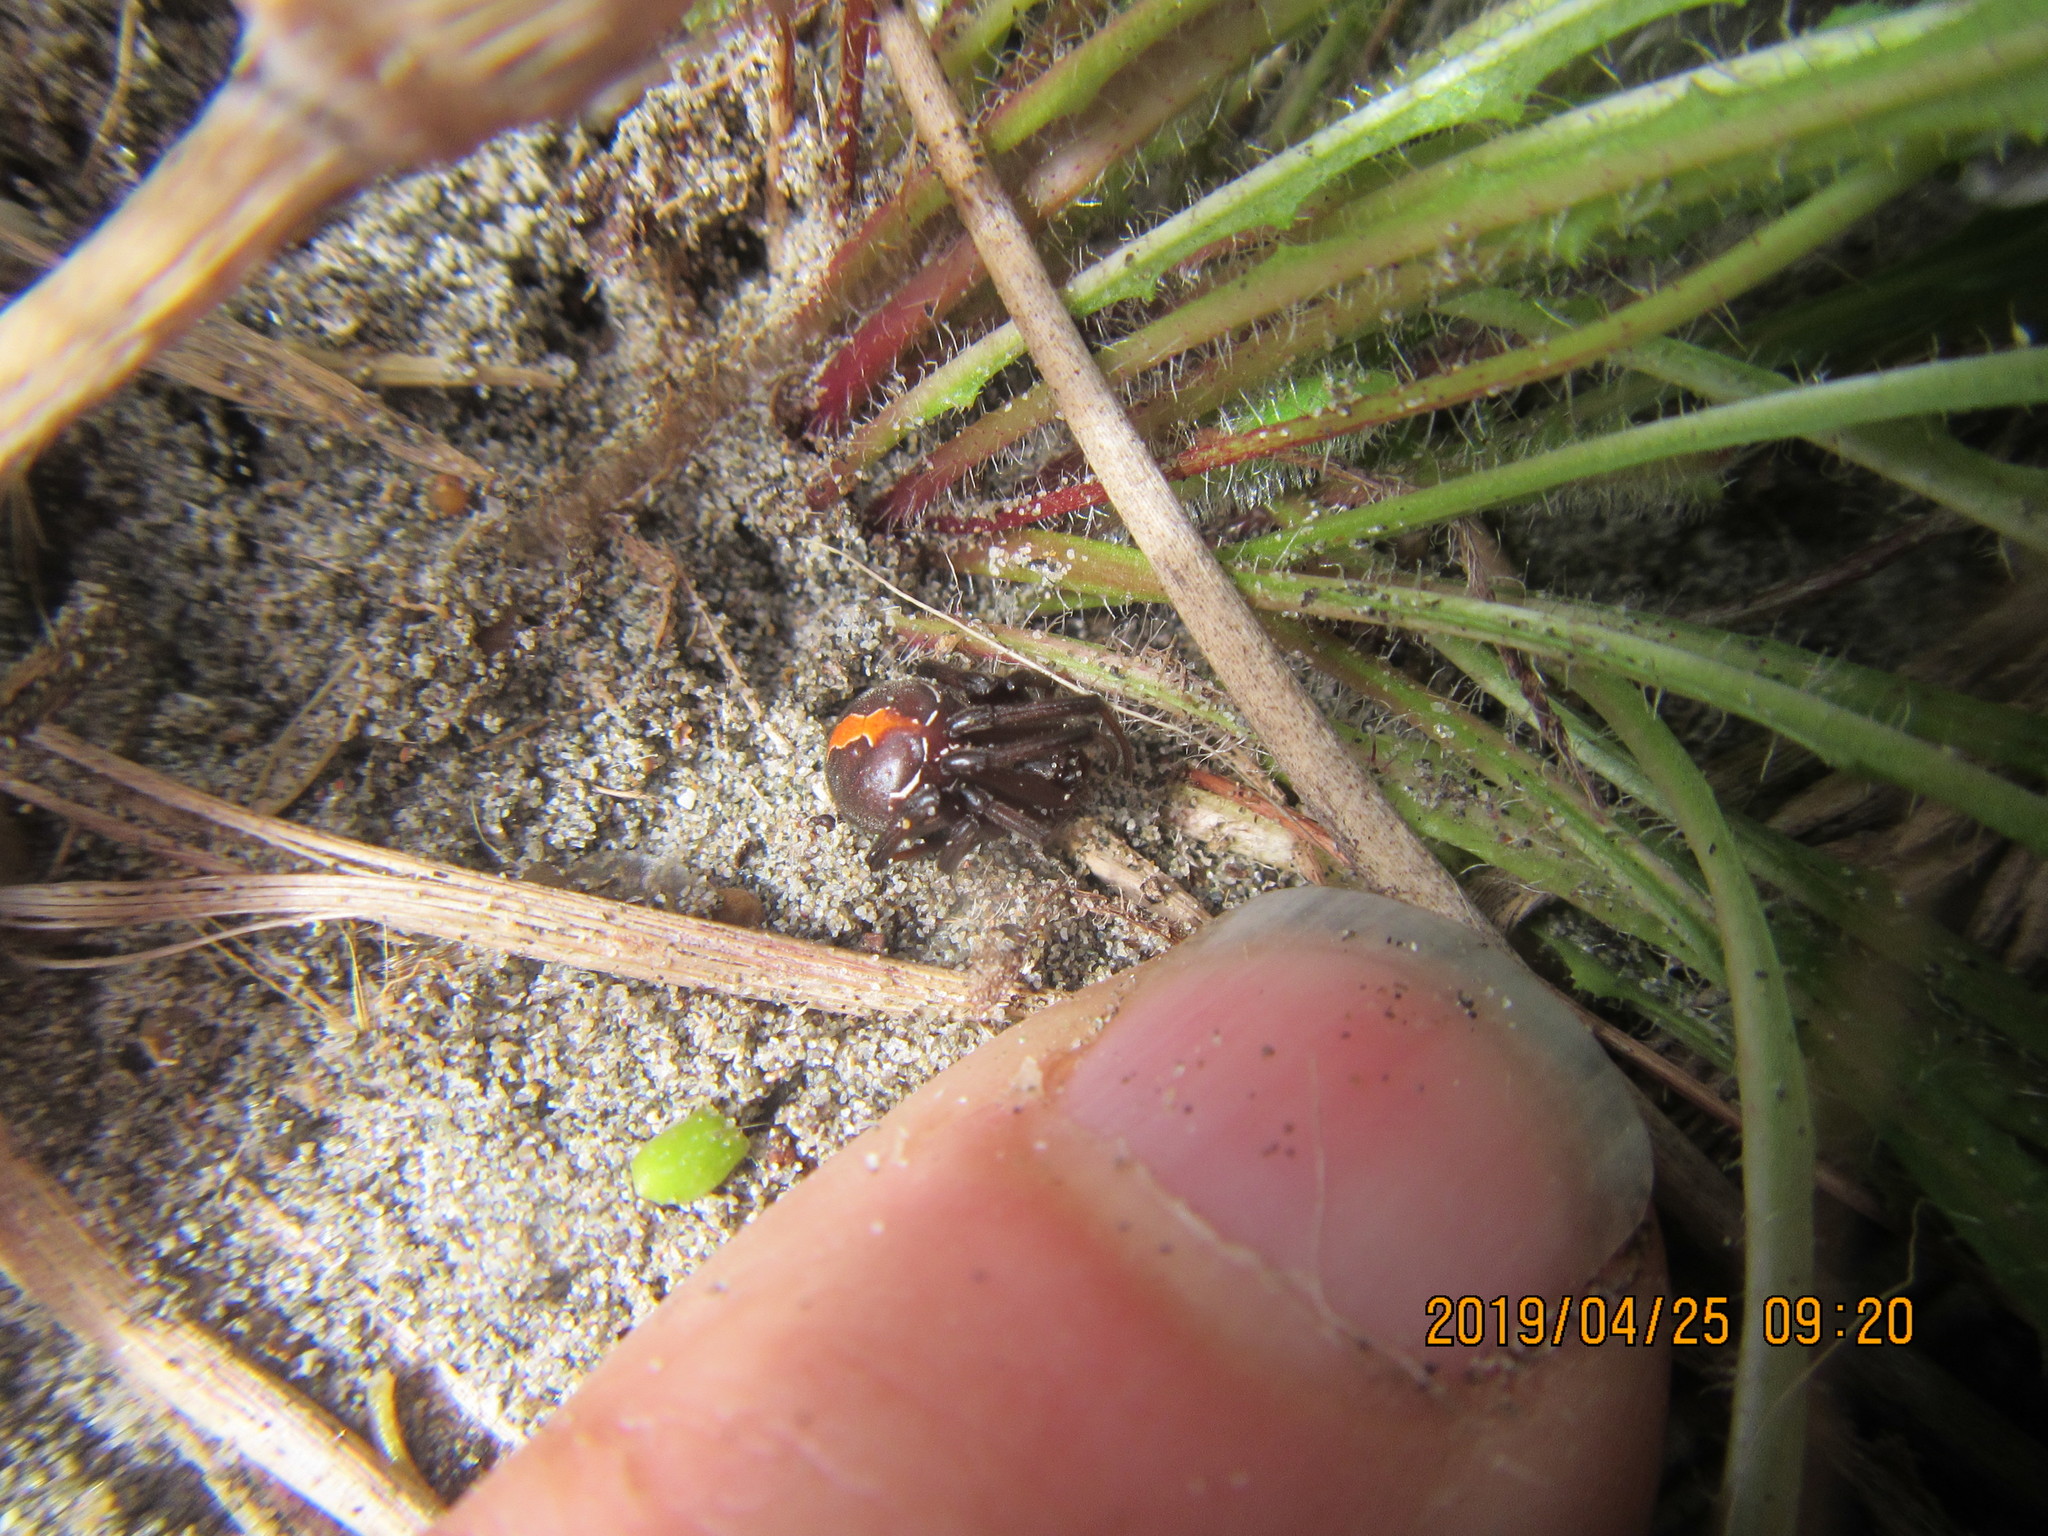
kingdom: Animalia
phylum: Arthropoda
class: Arachnida
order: Araneae
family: Theridiidae
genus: Latrodectus
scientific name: Latrodectus katipo
